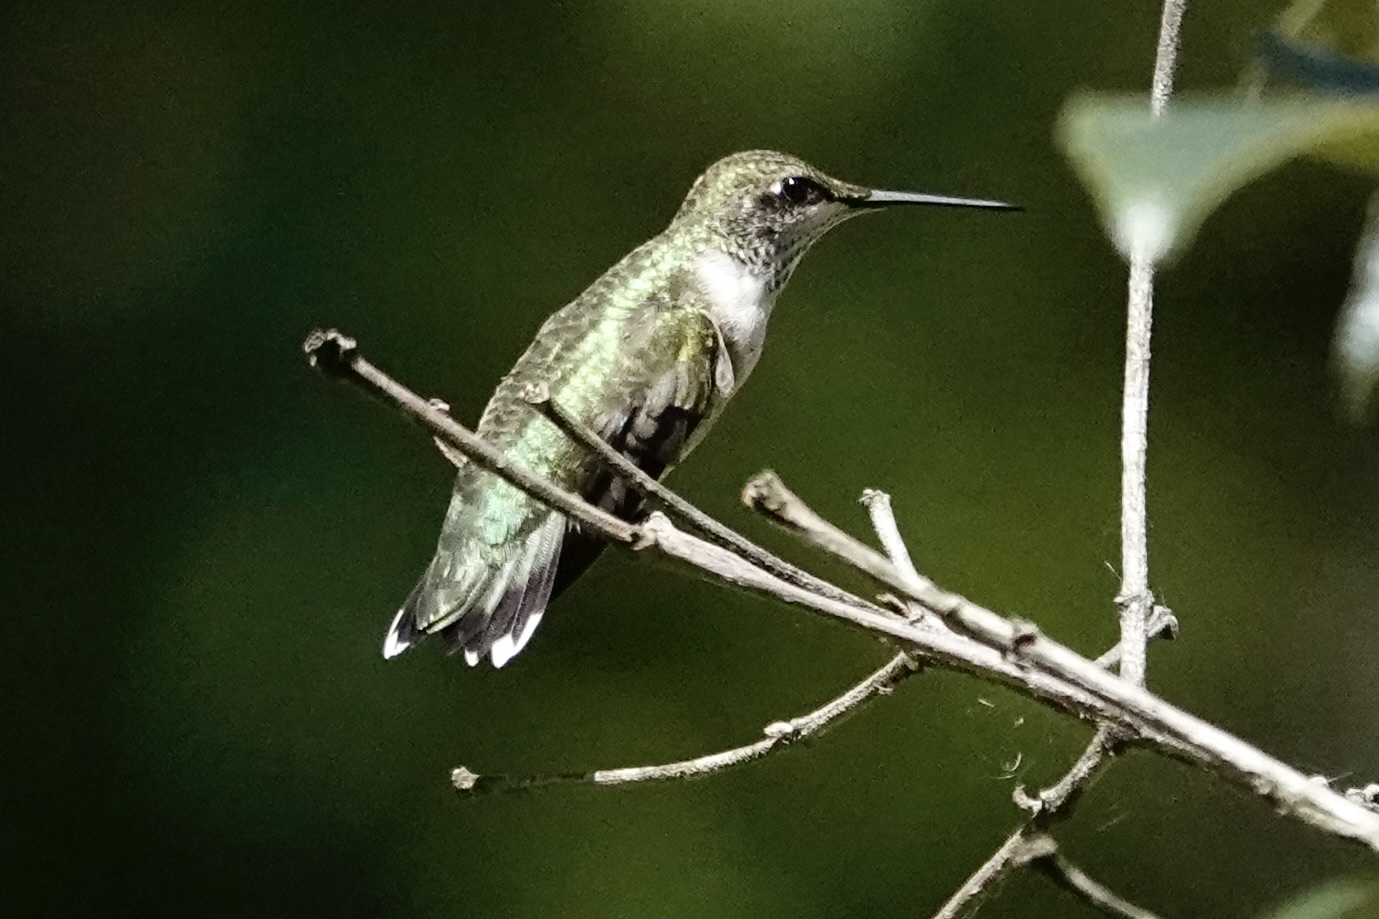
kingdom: Animalia
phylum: Chordata
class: Aves
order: Apodiformes
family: Trochilidae
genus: Archilochus
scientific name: Archilochus colubris
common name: Ruby-throated hummingbird
